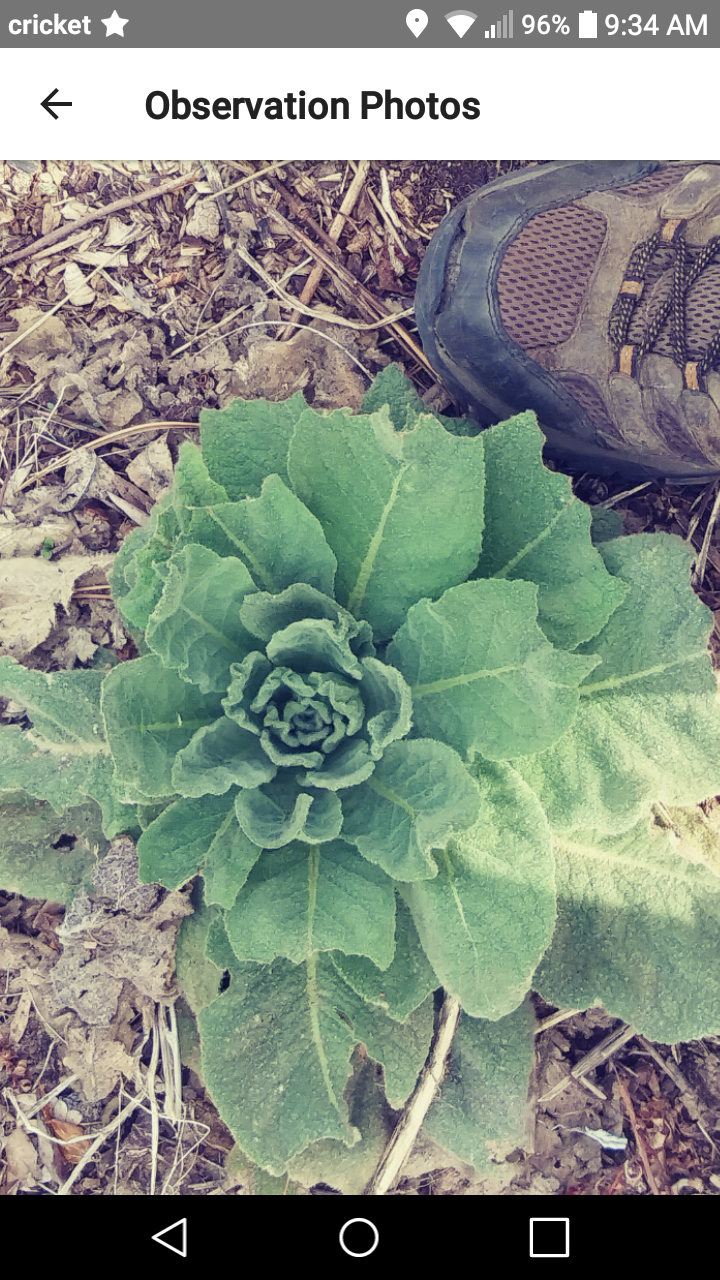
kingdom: Plantae
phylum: Tracheophyta
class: Magnoliopsida
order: Lamiales
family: Scrophulariaceae
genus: Verbascum
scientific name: Verbascum thapsus
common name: Common mullein
